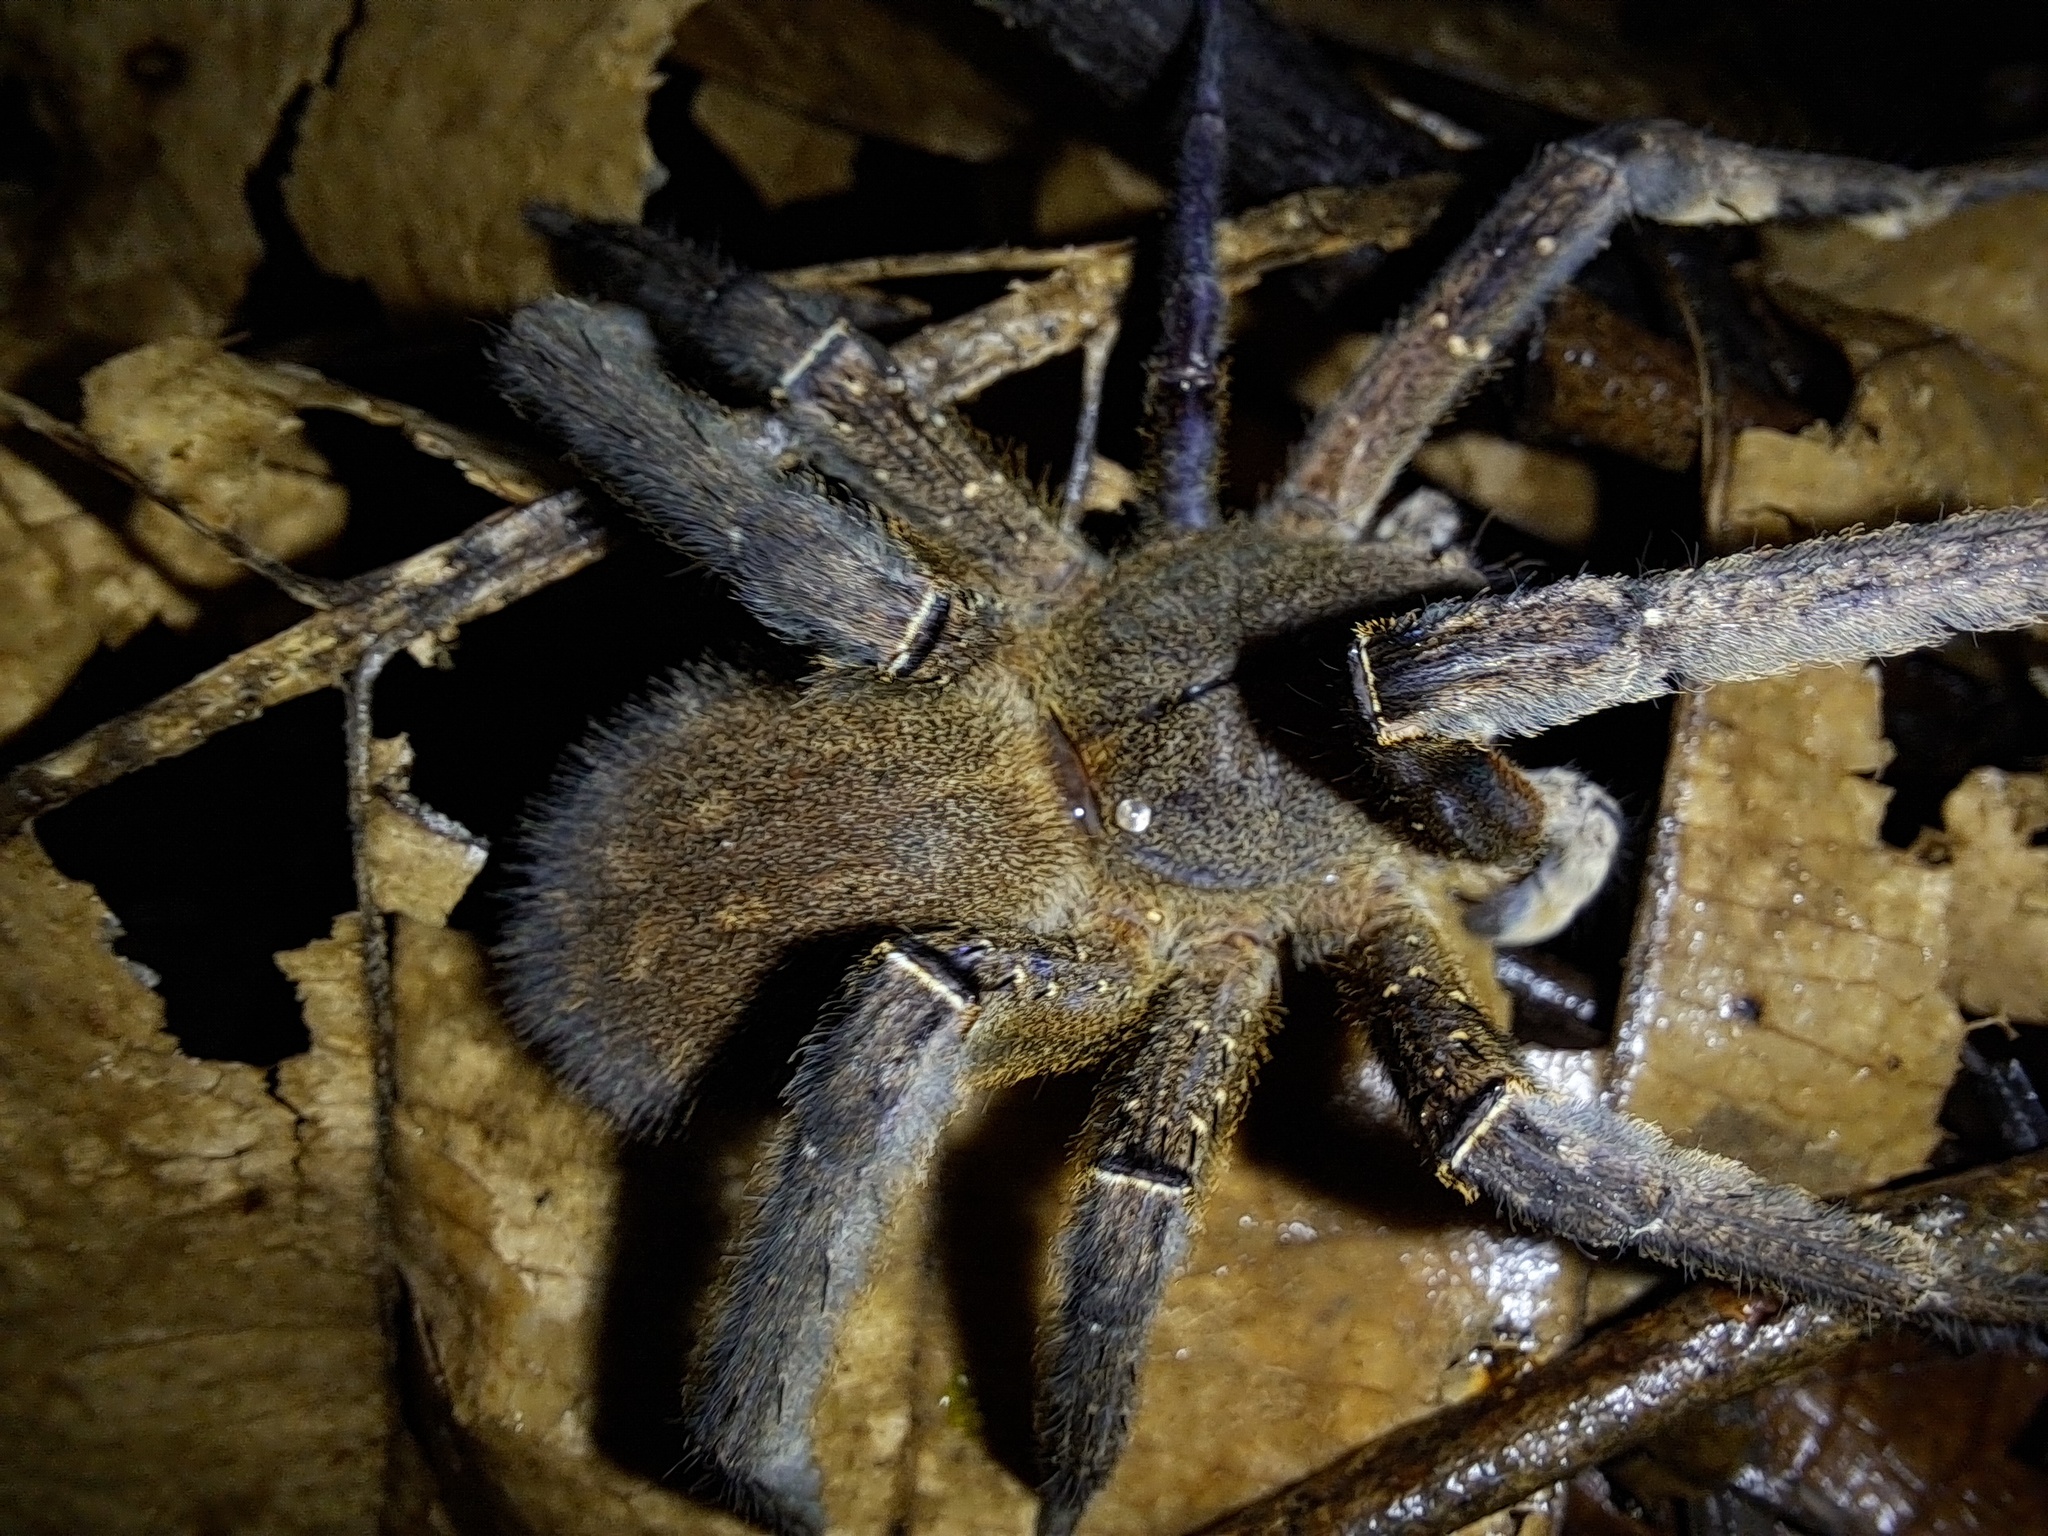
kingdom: Animalia
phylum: Arthropoda
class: Arachnida
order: Araneae
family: Ctenidae
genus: Phoneutria
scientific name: Phoneutria fera
